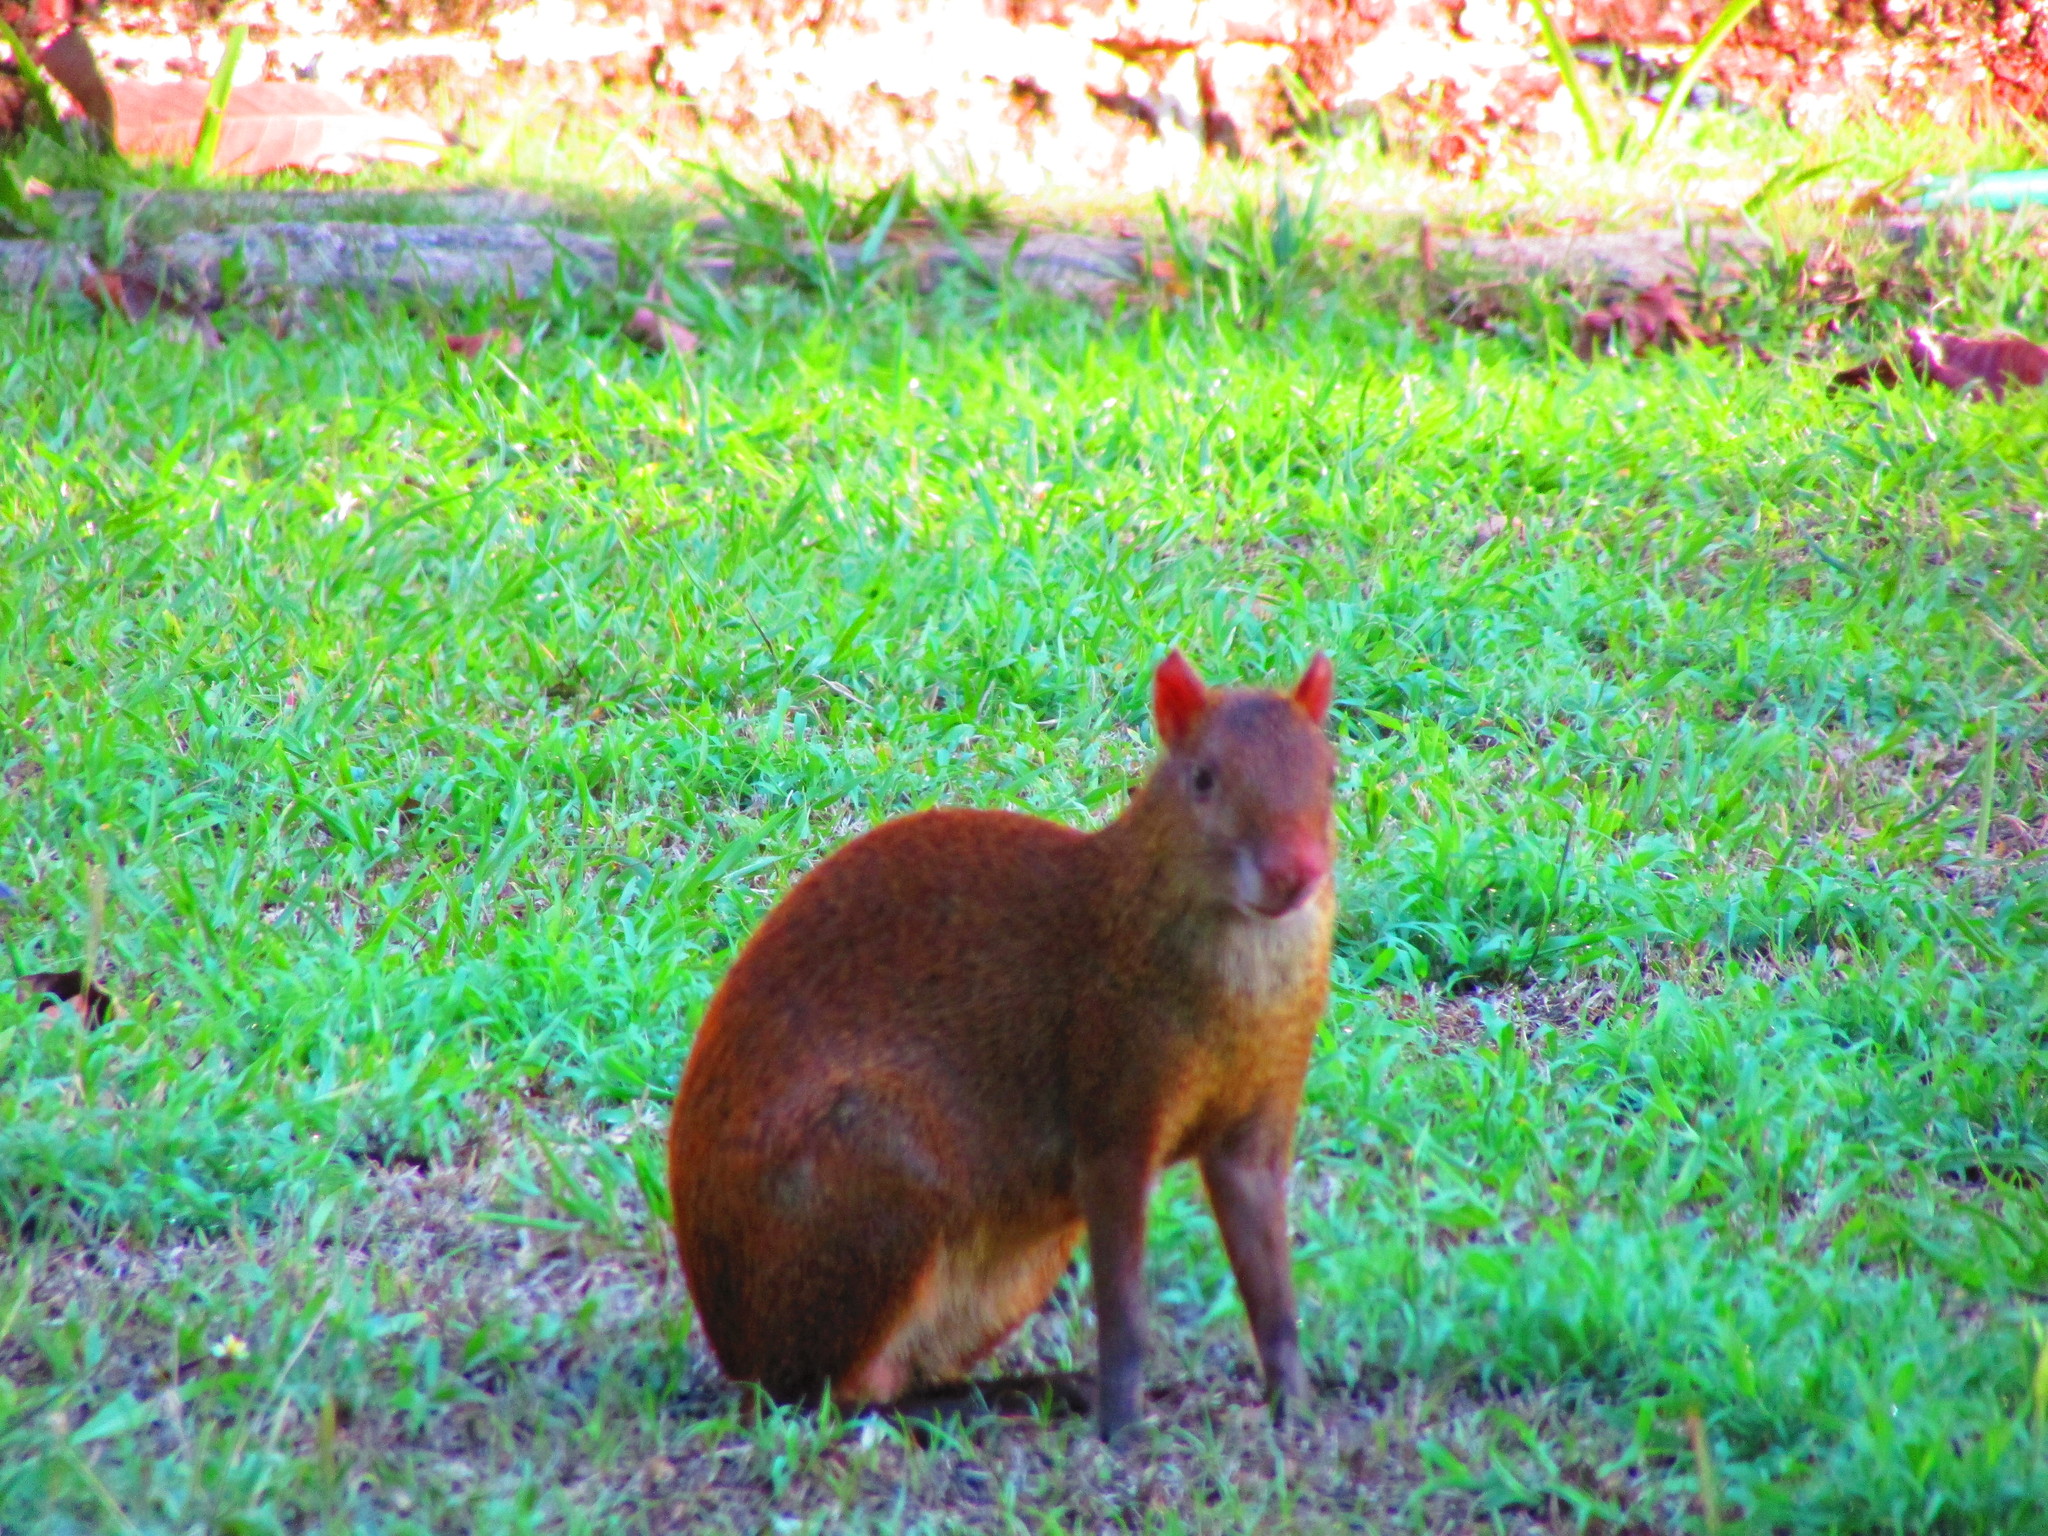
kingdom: Animalia
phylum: Chordata
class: Mammalia
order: Rodentia
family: Dasyproctidae
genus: Dasyprocta
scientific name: Dasyprocta punctata
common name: Central american agouti
